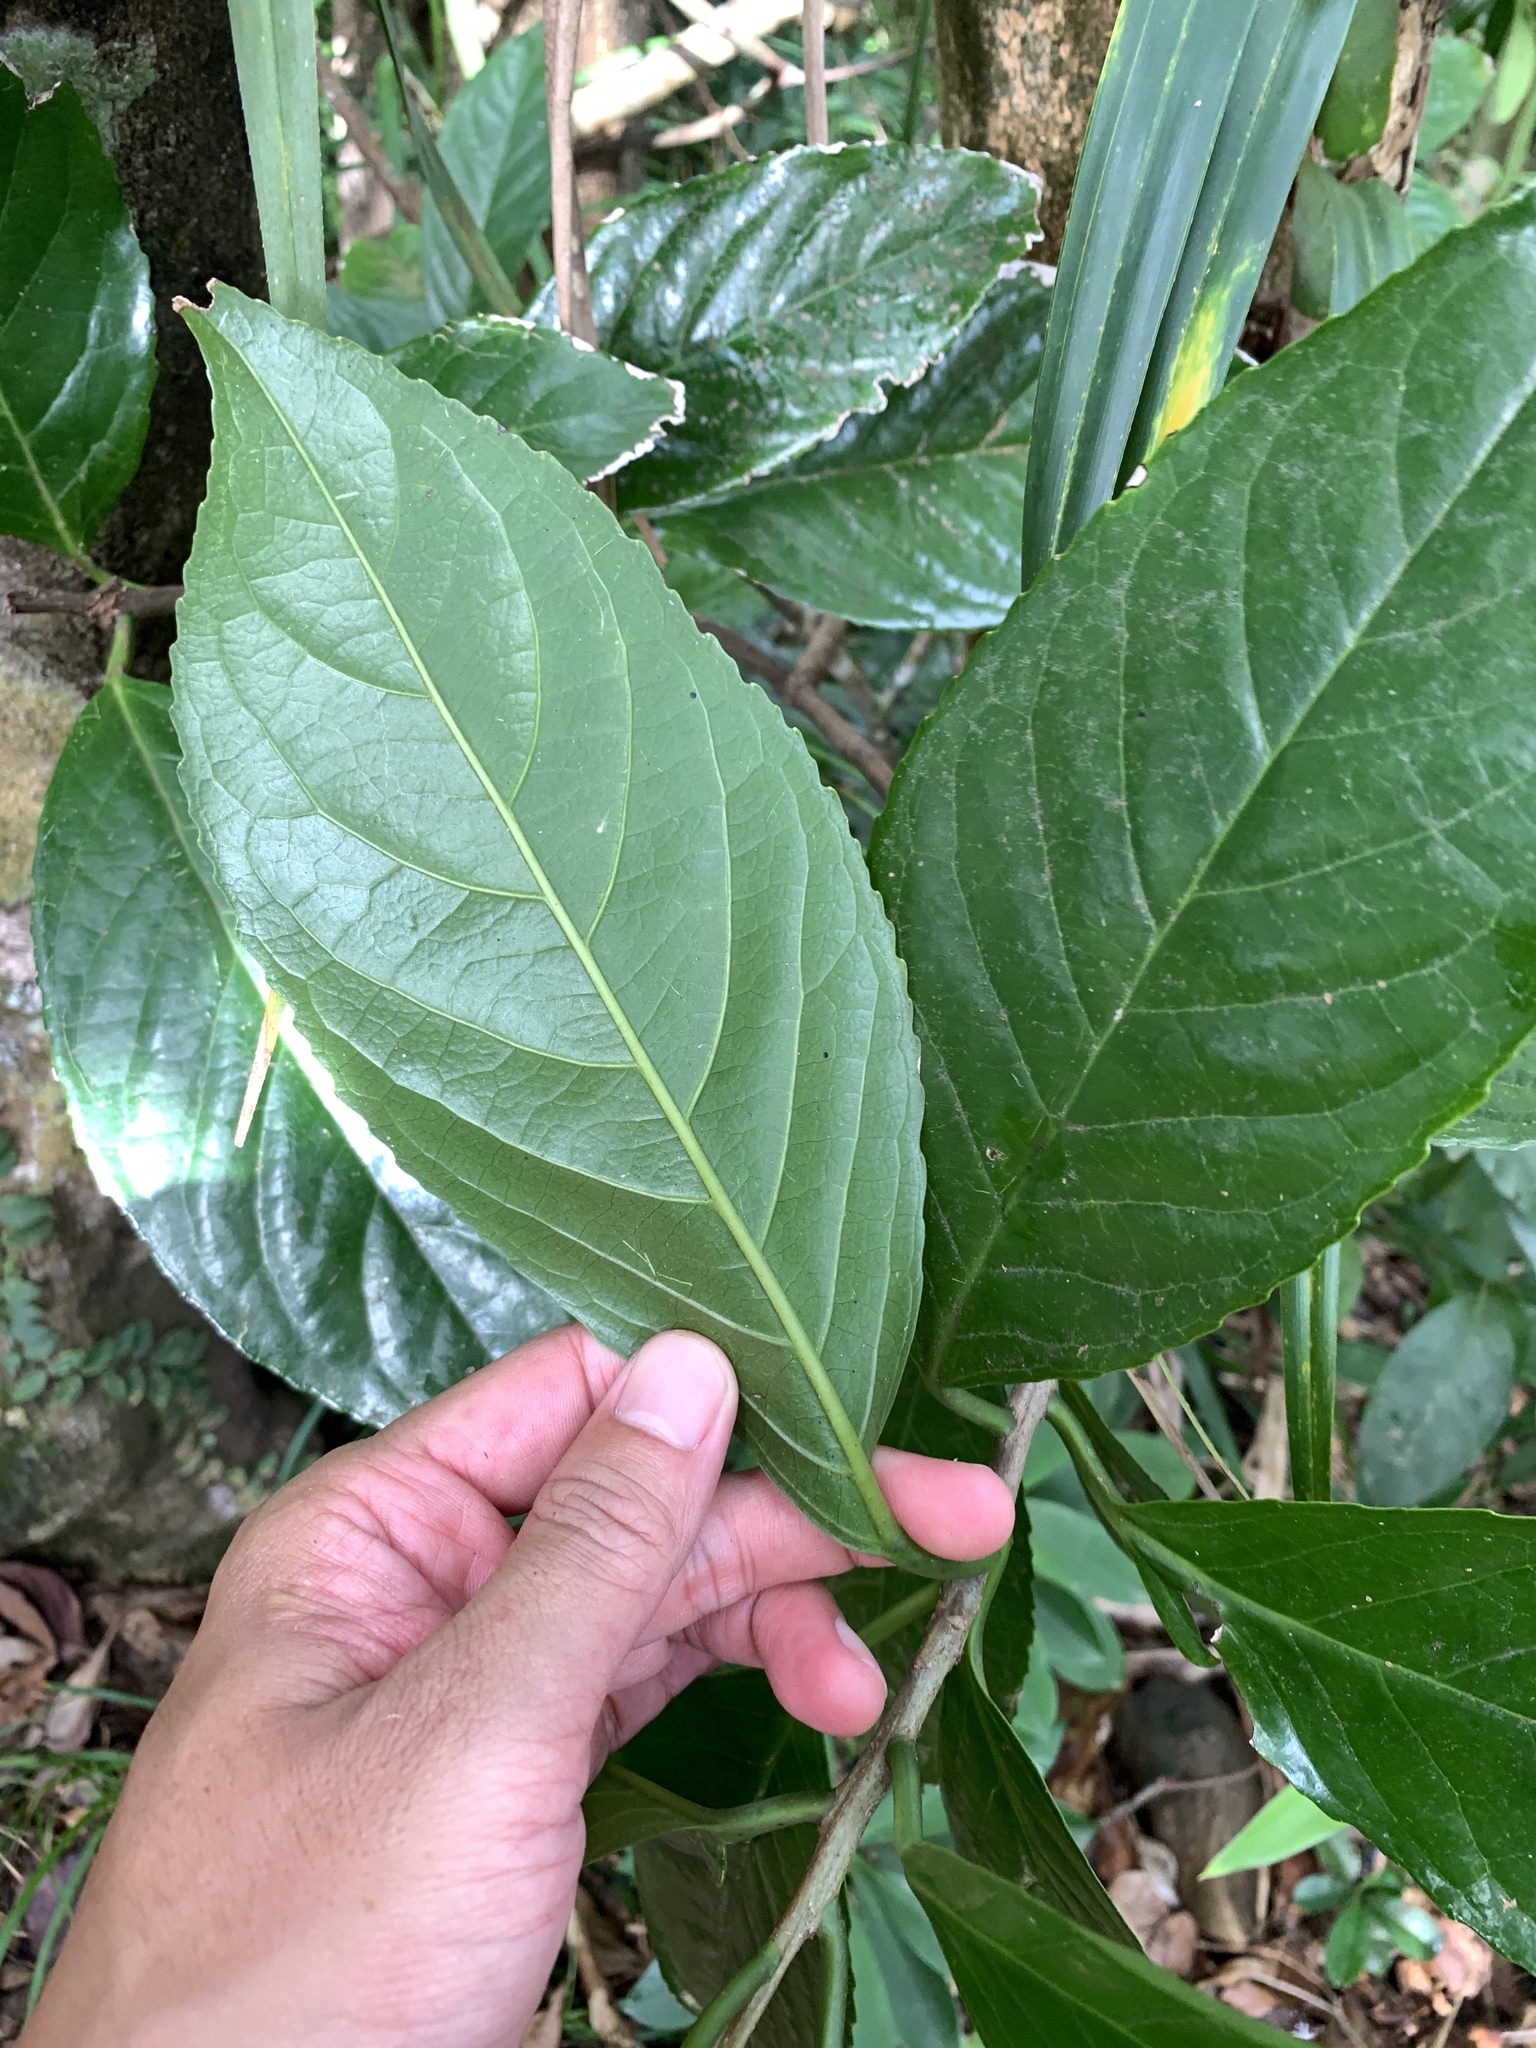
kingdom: Plantae
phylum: Tracheophyta
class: Magnoliopsida
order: Ericales
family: Symplocaceae
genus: Symplocos
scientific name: Symplocos cochinchinensis
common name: Buff hazelwood
